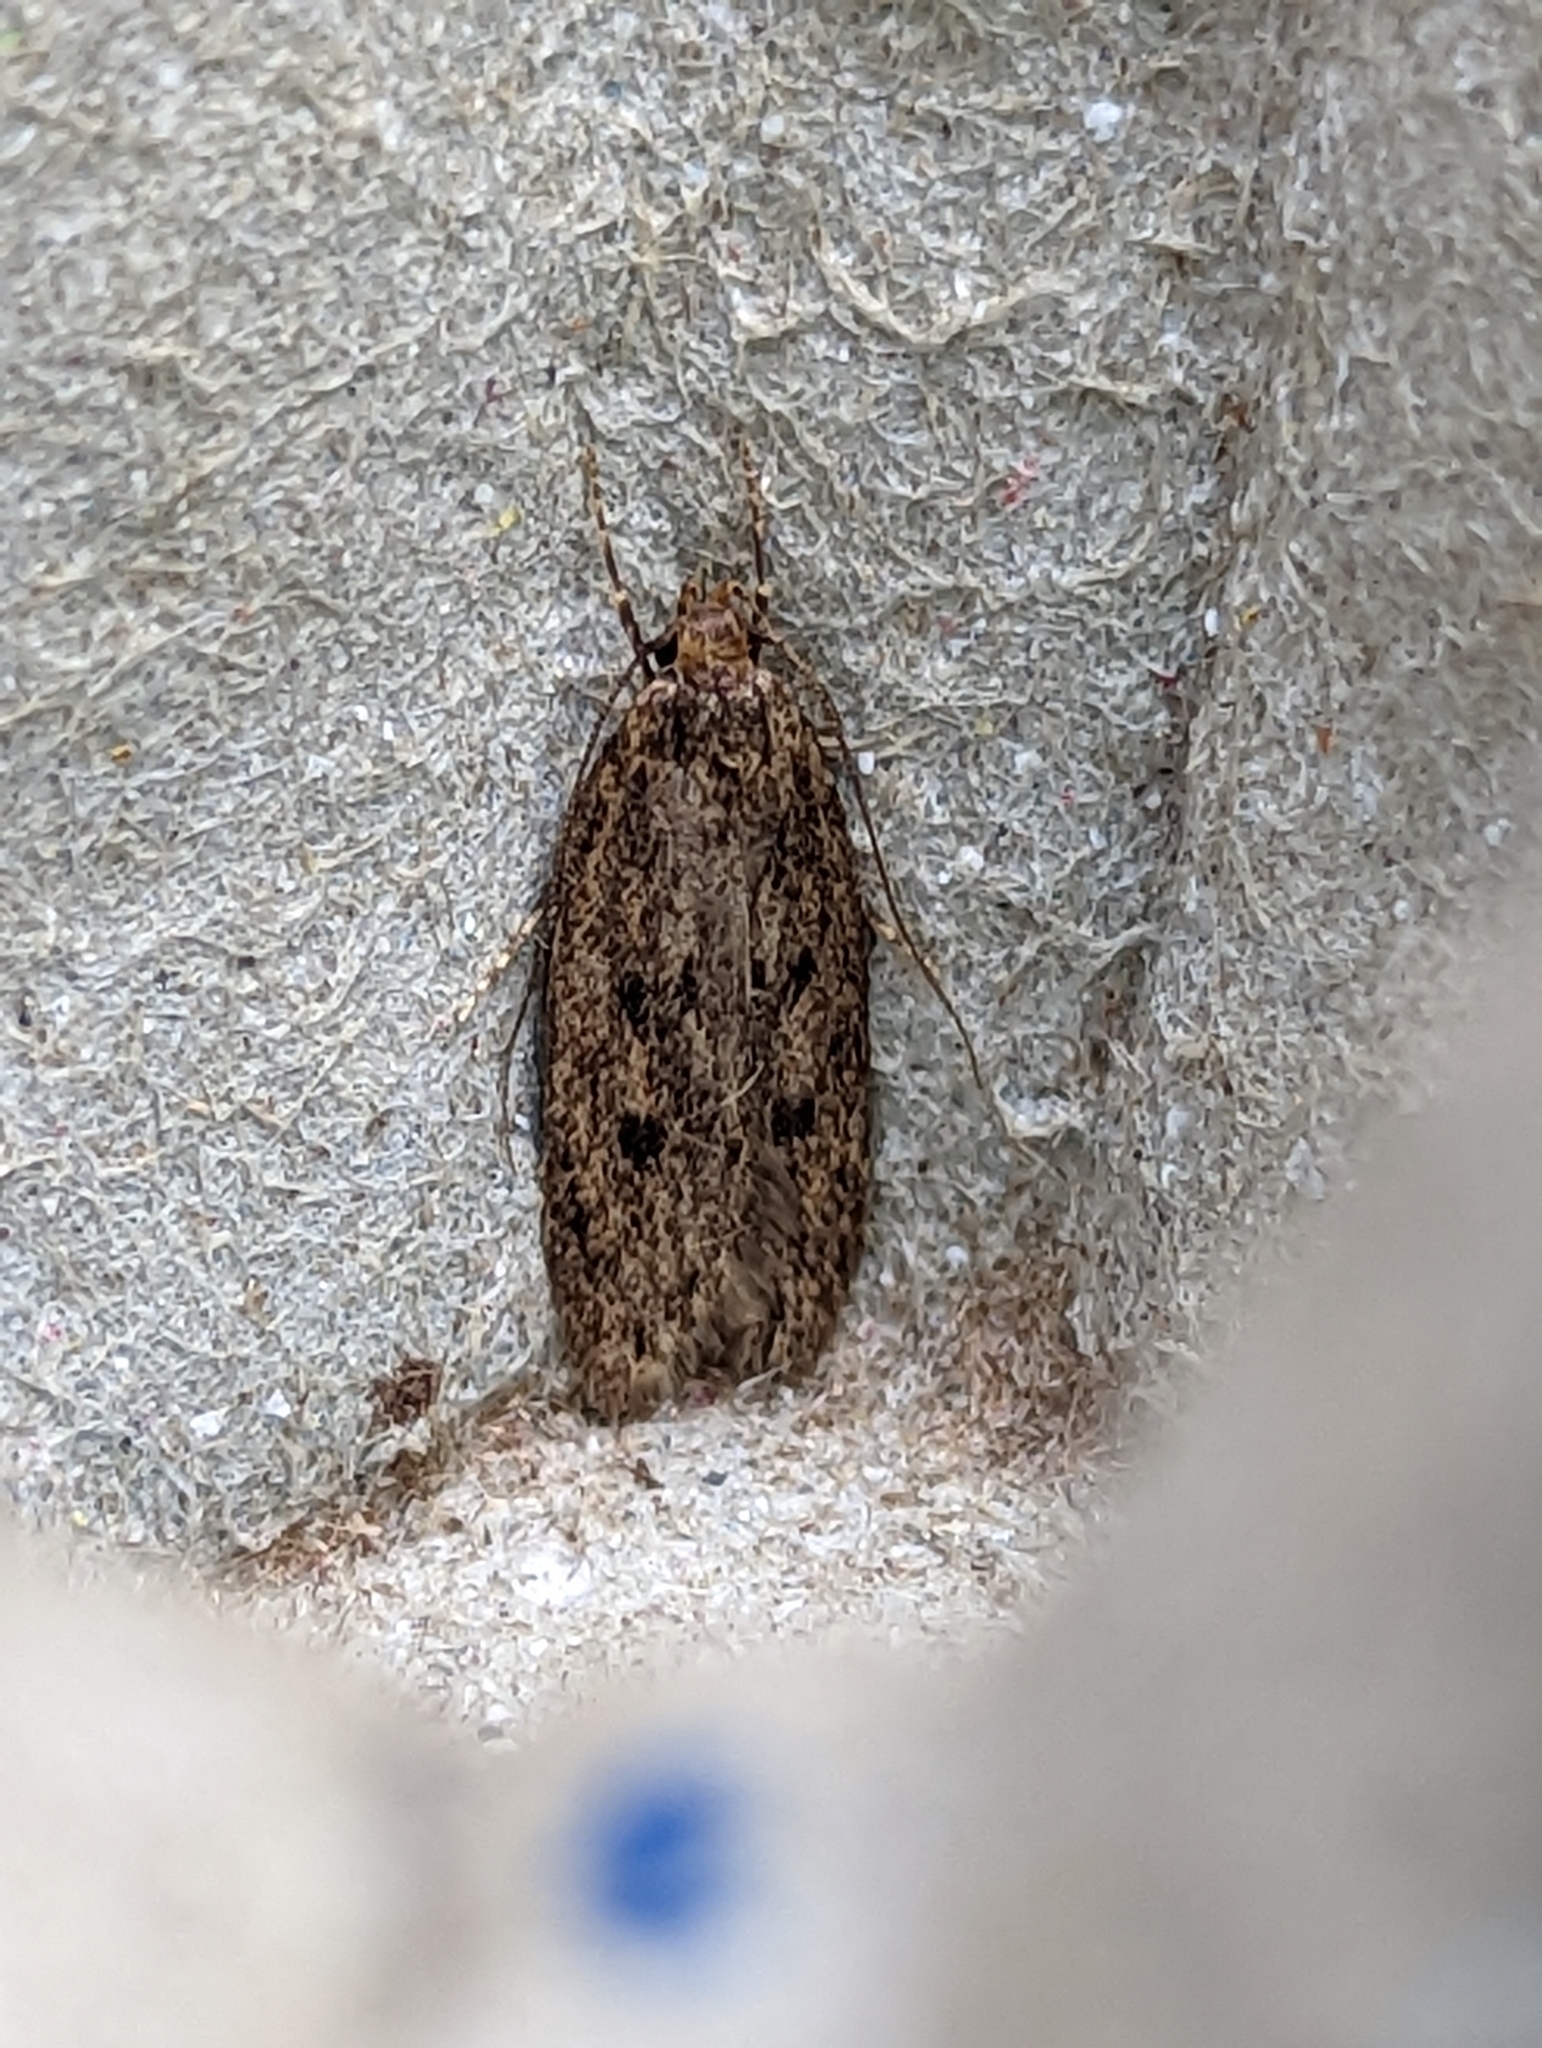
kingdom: Animalia
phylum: Arthropoda
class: Insecta
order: Lepidoptera
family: Oecophoridae
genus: Hofmannophila
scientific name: Hofmannophila pseudospretella
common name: Brown house moth
